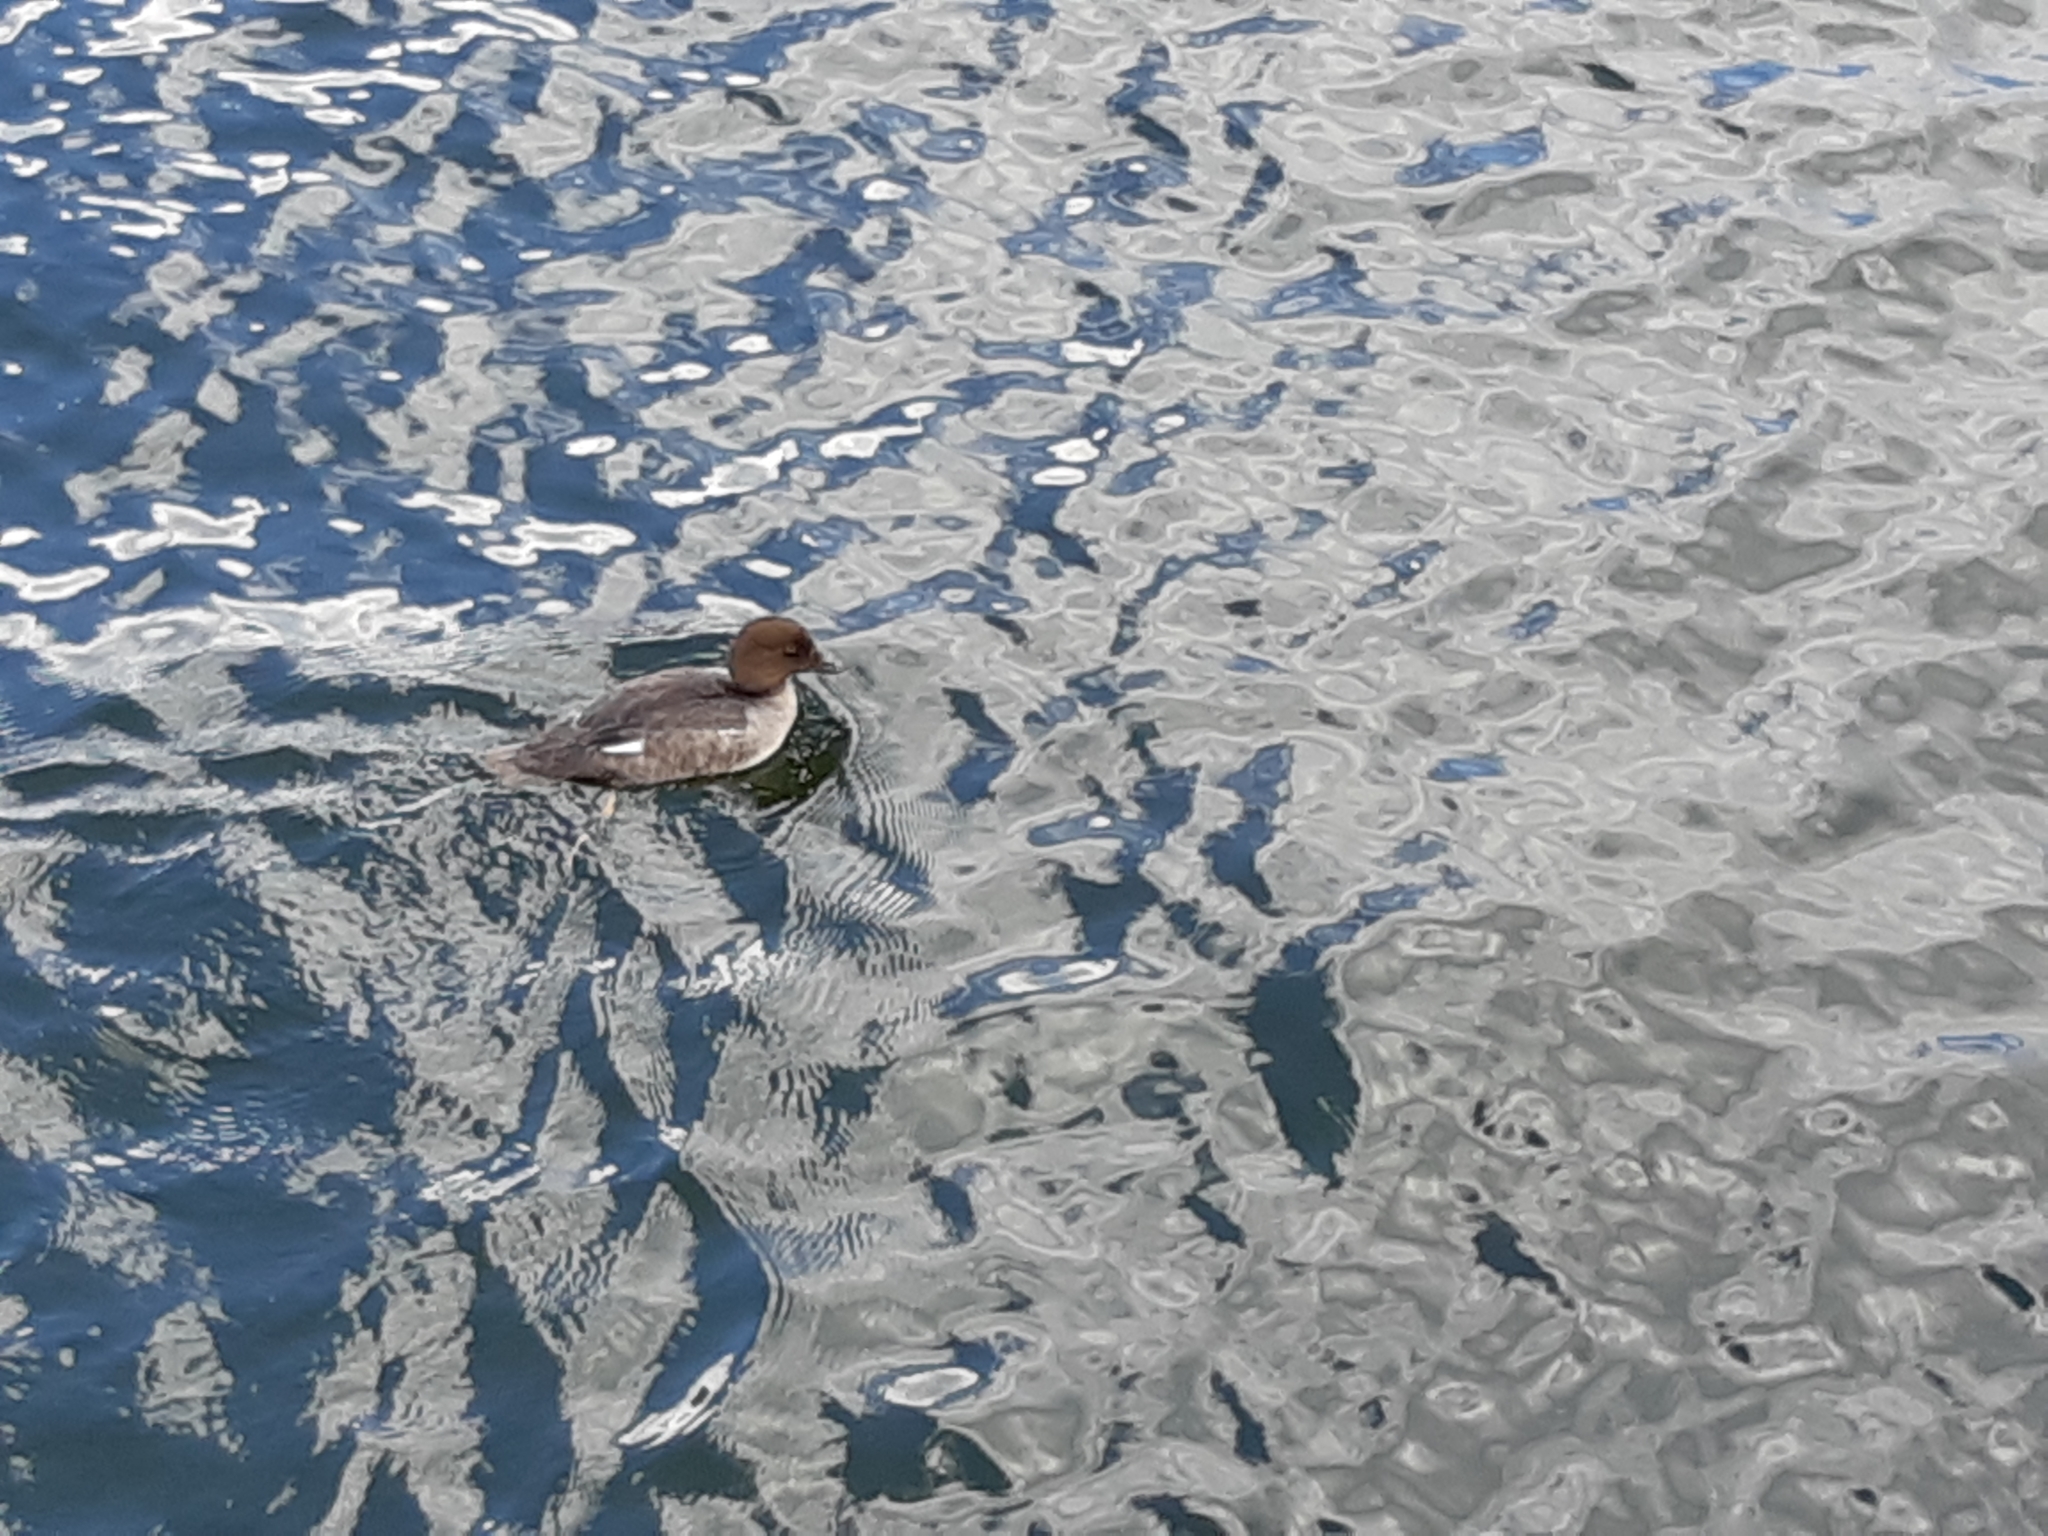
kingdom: Animalia
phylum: Chordata
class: Aves
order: Anseriformes
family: Anatidae
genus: Bucephala
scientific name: Bucephala clangula
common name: Common goldeneye
